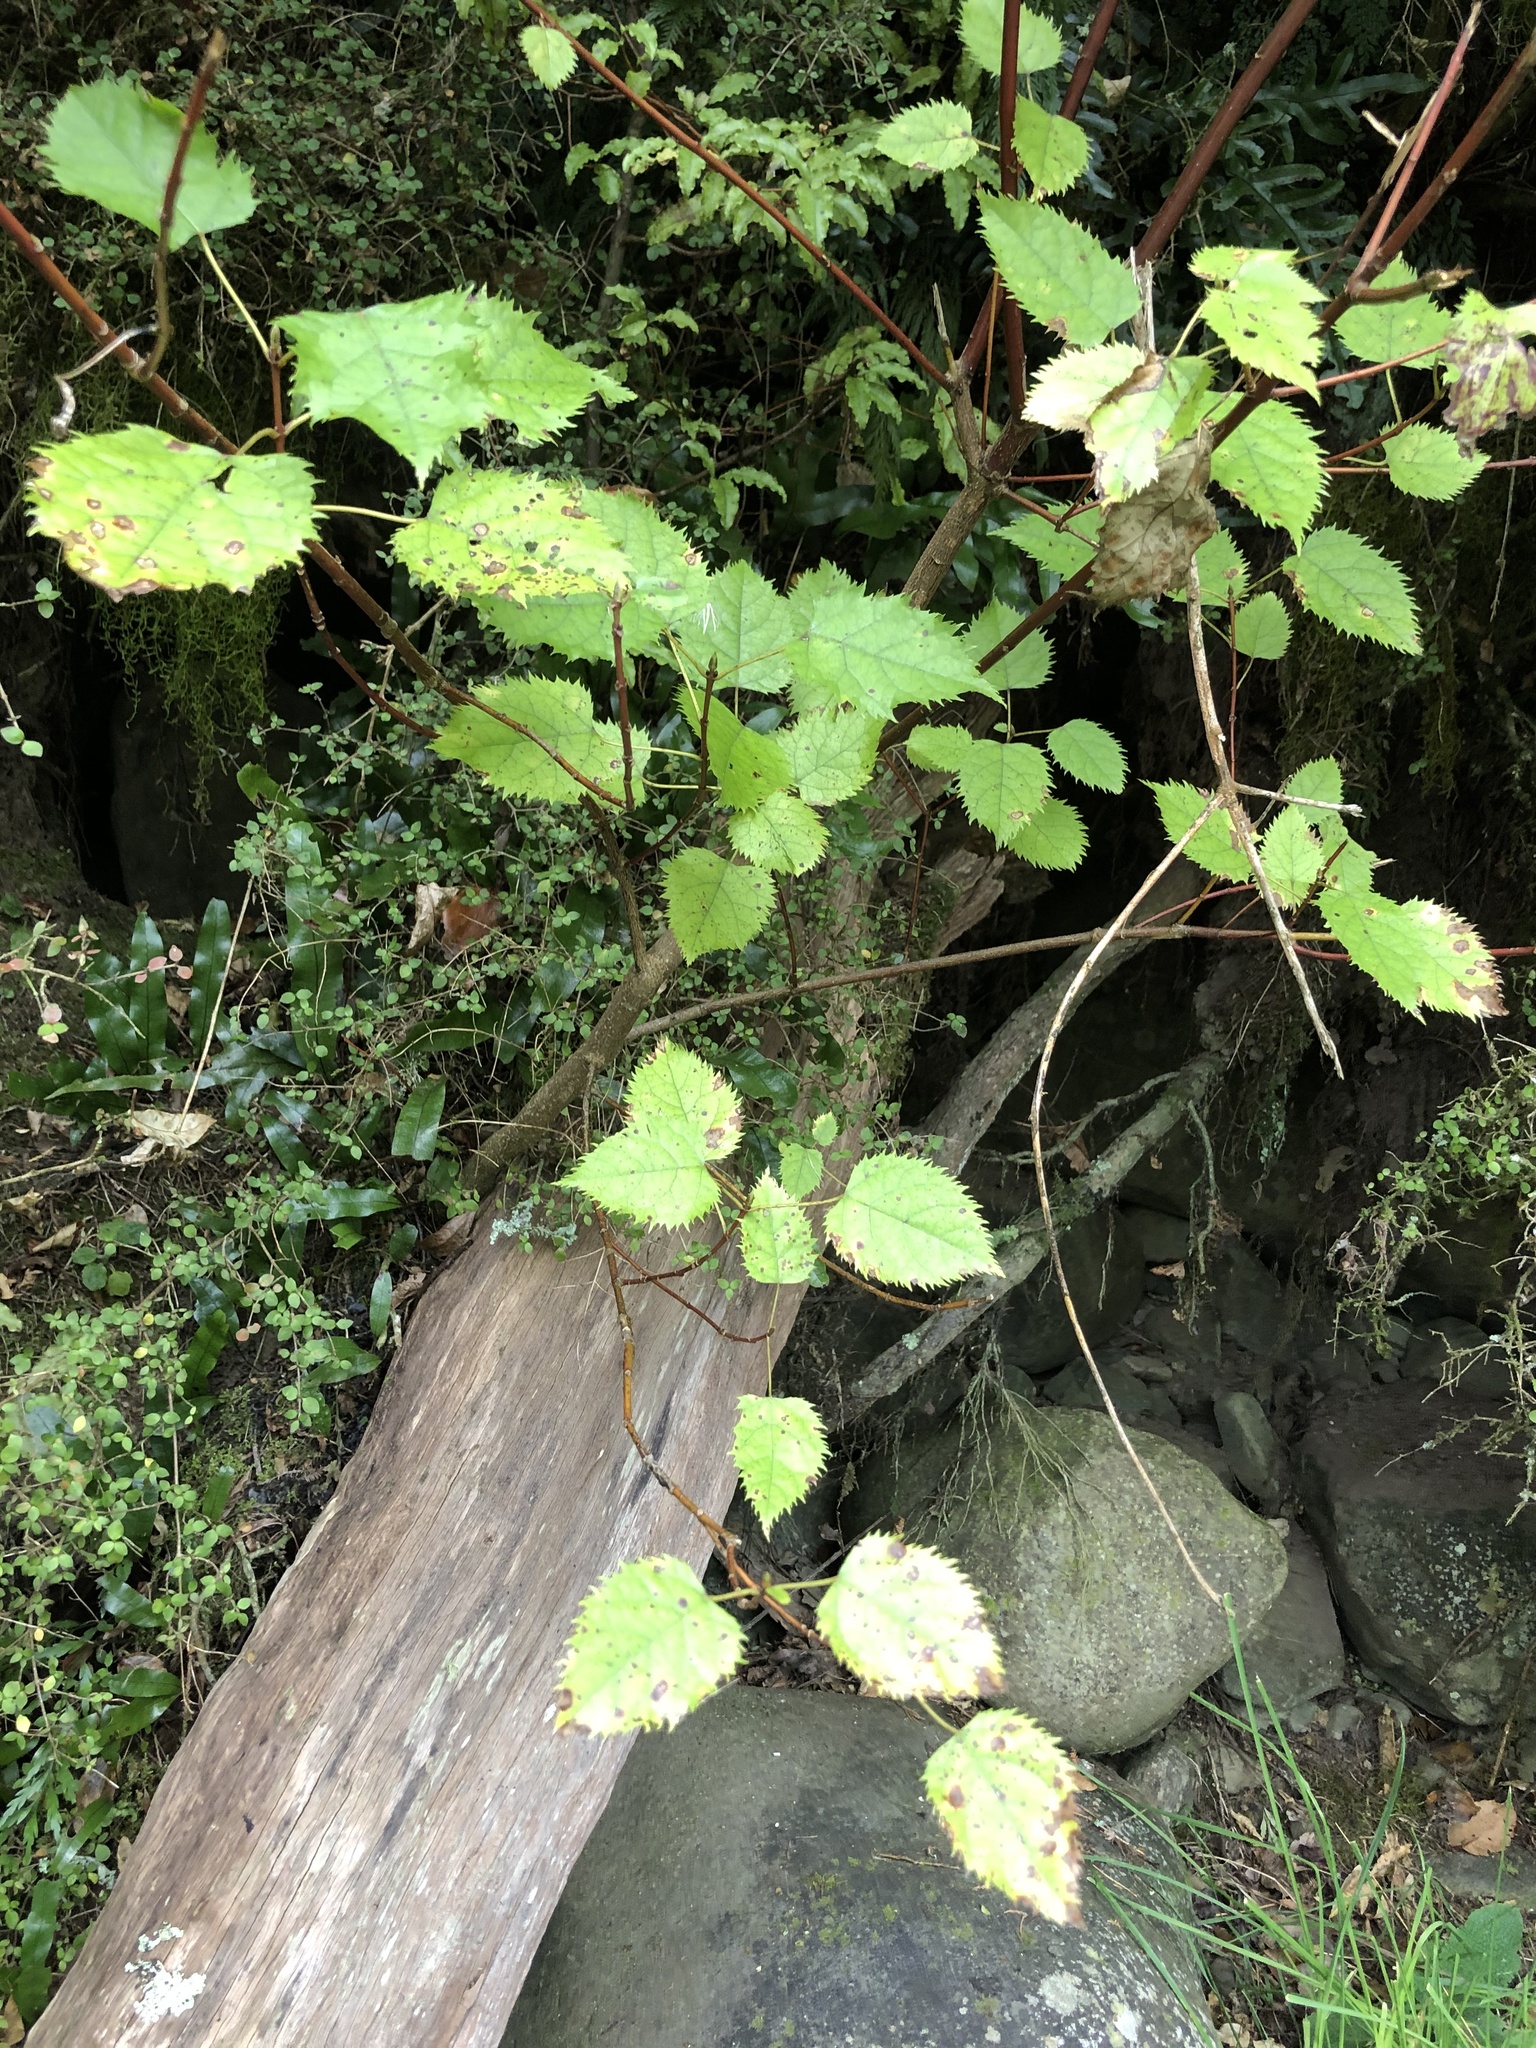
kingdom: Plantae
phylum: Tracheophyta
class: Magnoliopsida
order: Oxalidales
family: Elaeocarpaceae
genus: Aristotelia
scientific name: Aristotelia serrata
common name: New zealand wineberry
